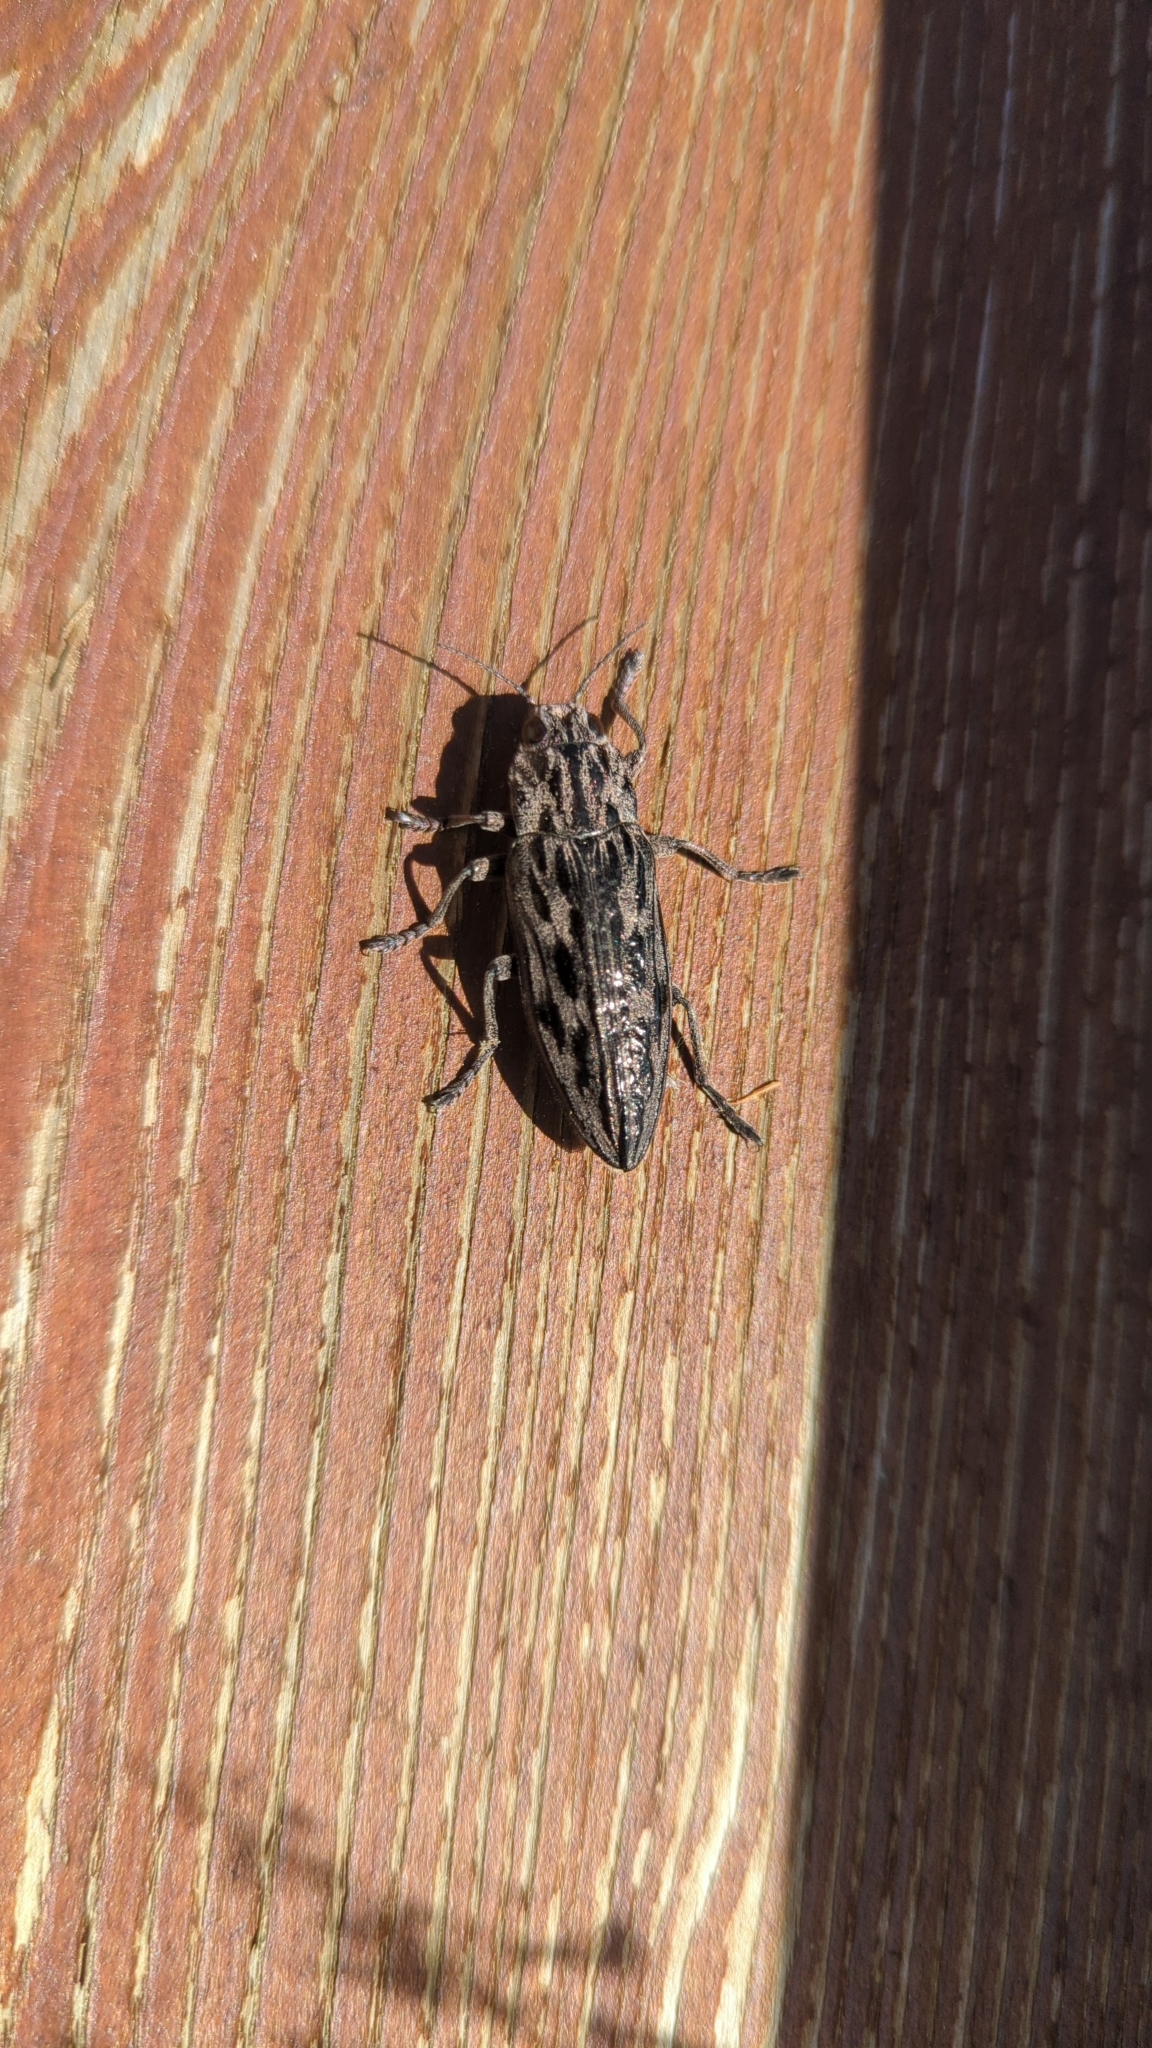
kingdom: Animalia
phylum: Arthropoda
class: Insecta
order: Coleoptera
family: Buprestidae
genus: Chalcophora
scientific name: Chalcophora angulicollis
